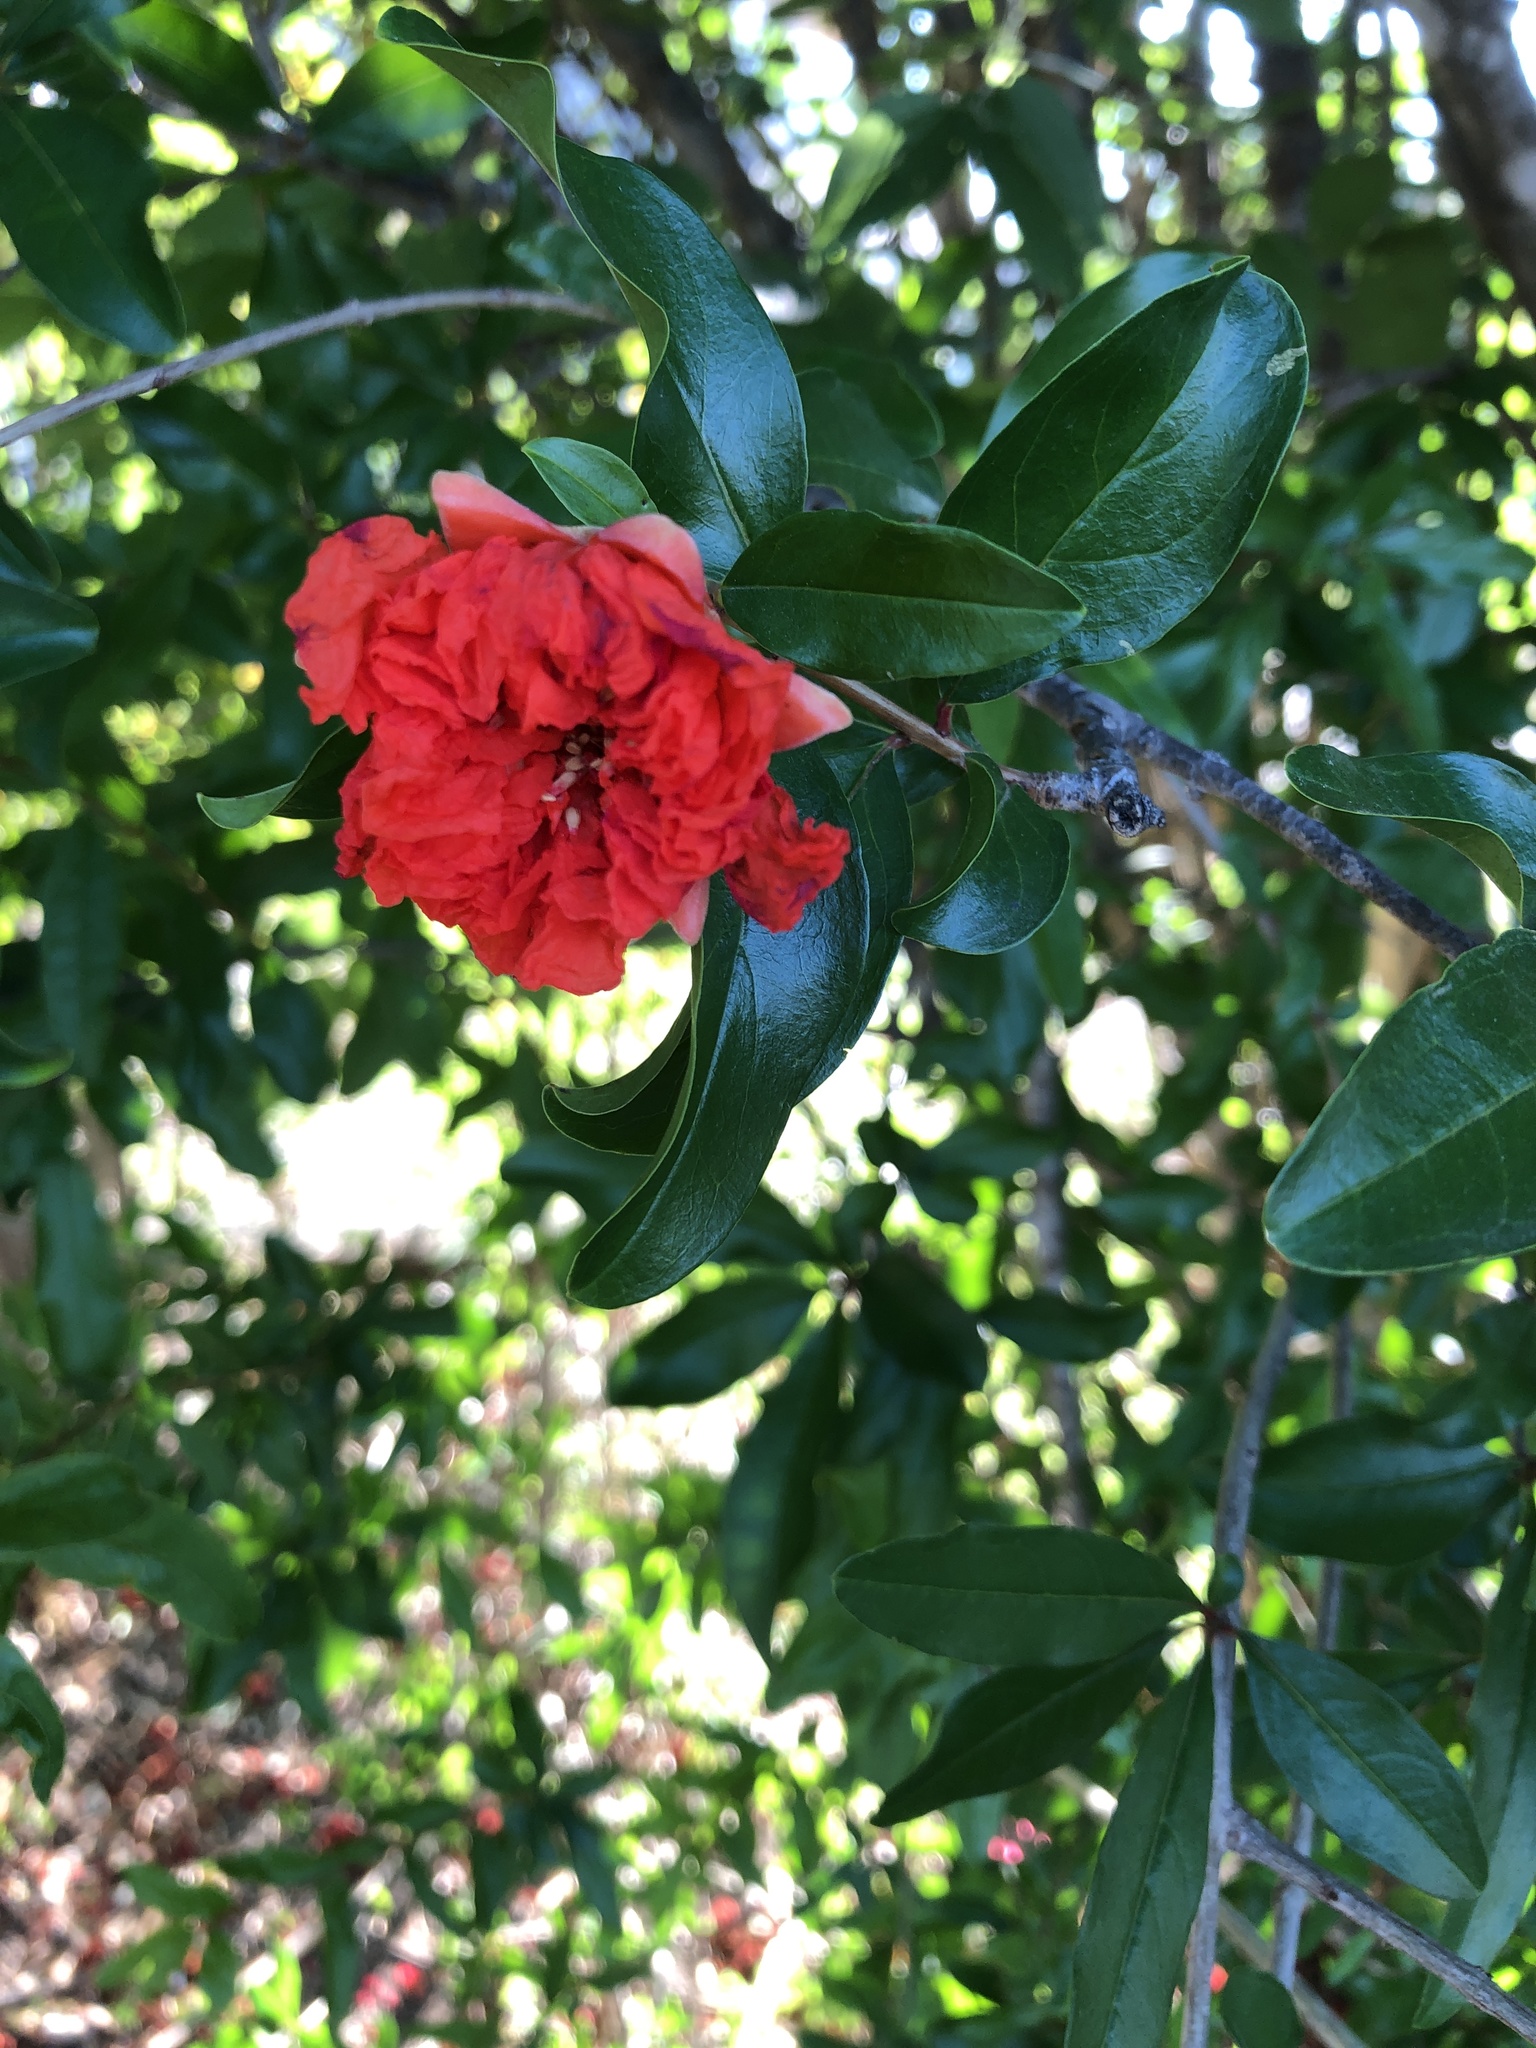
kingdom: Plantae
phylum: Tracheophyta
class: Magnoliopsida
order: Myrtales
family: Lythraceae
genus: Punica
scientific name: Punica granatum
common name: Pomegranate
